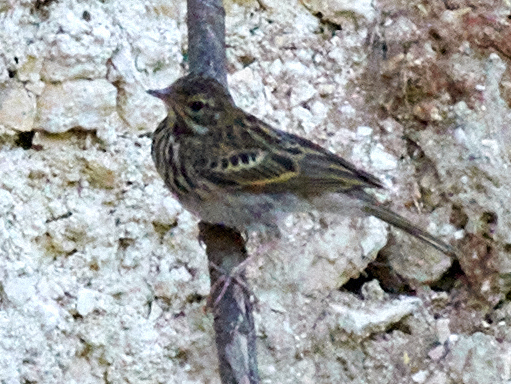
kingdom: Animalia
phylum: Chordata
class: Aves
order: Passeriformes
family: Motacillidae
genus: Anthus
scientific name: Anthus trivialis
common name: Tree pipit
